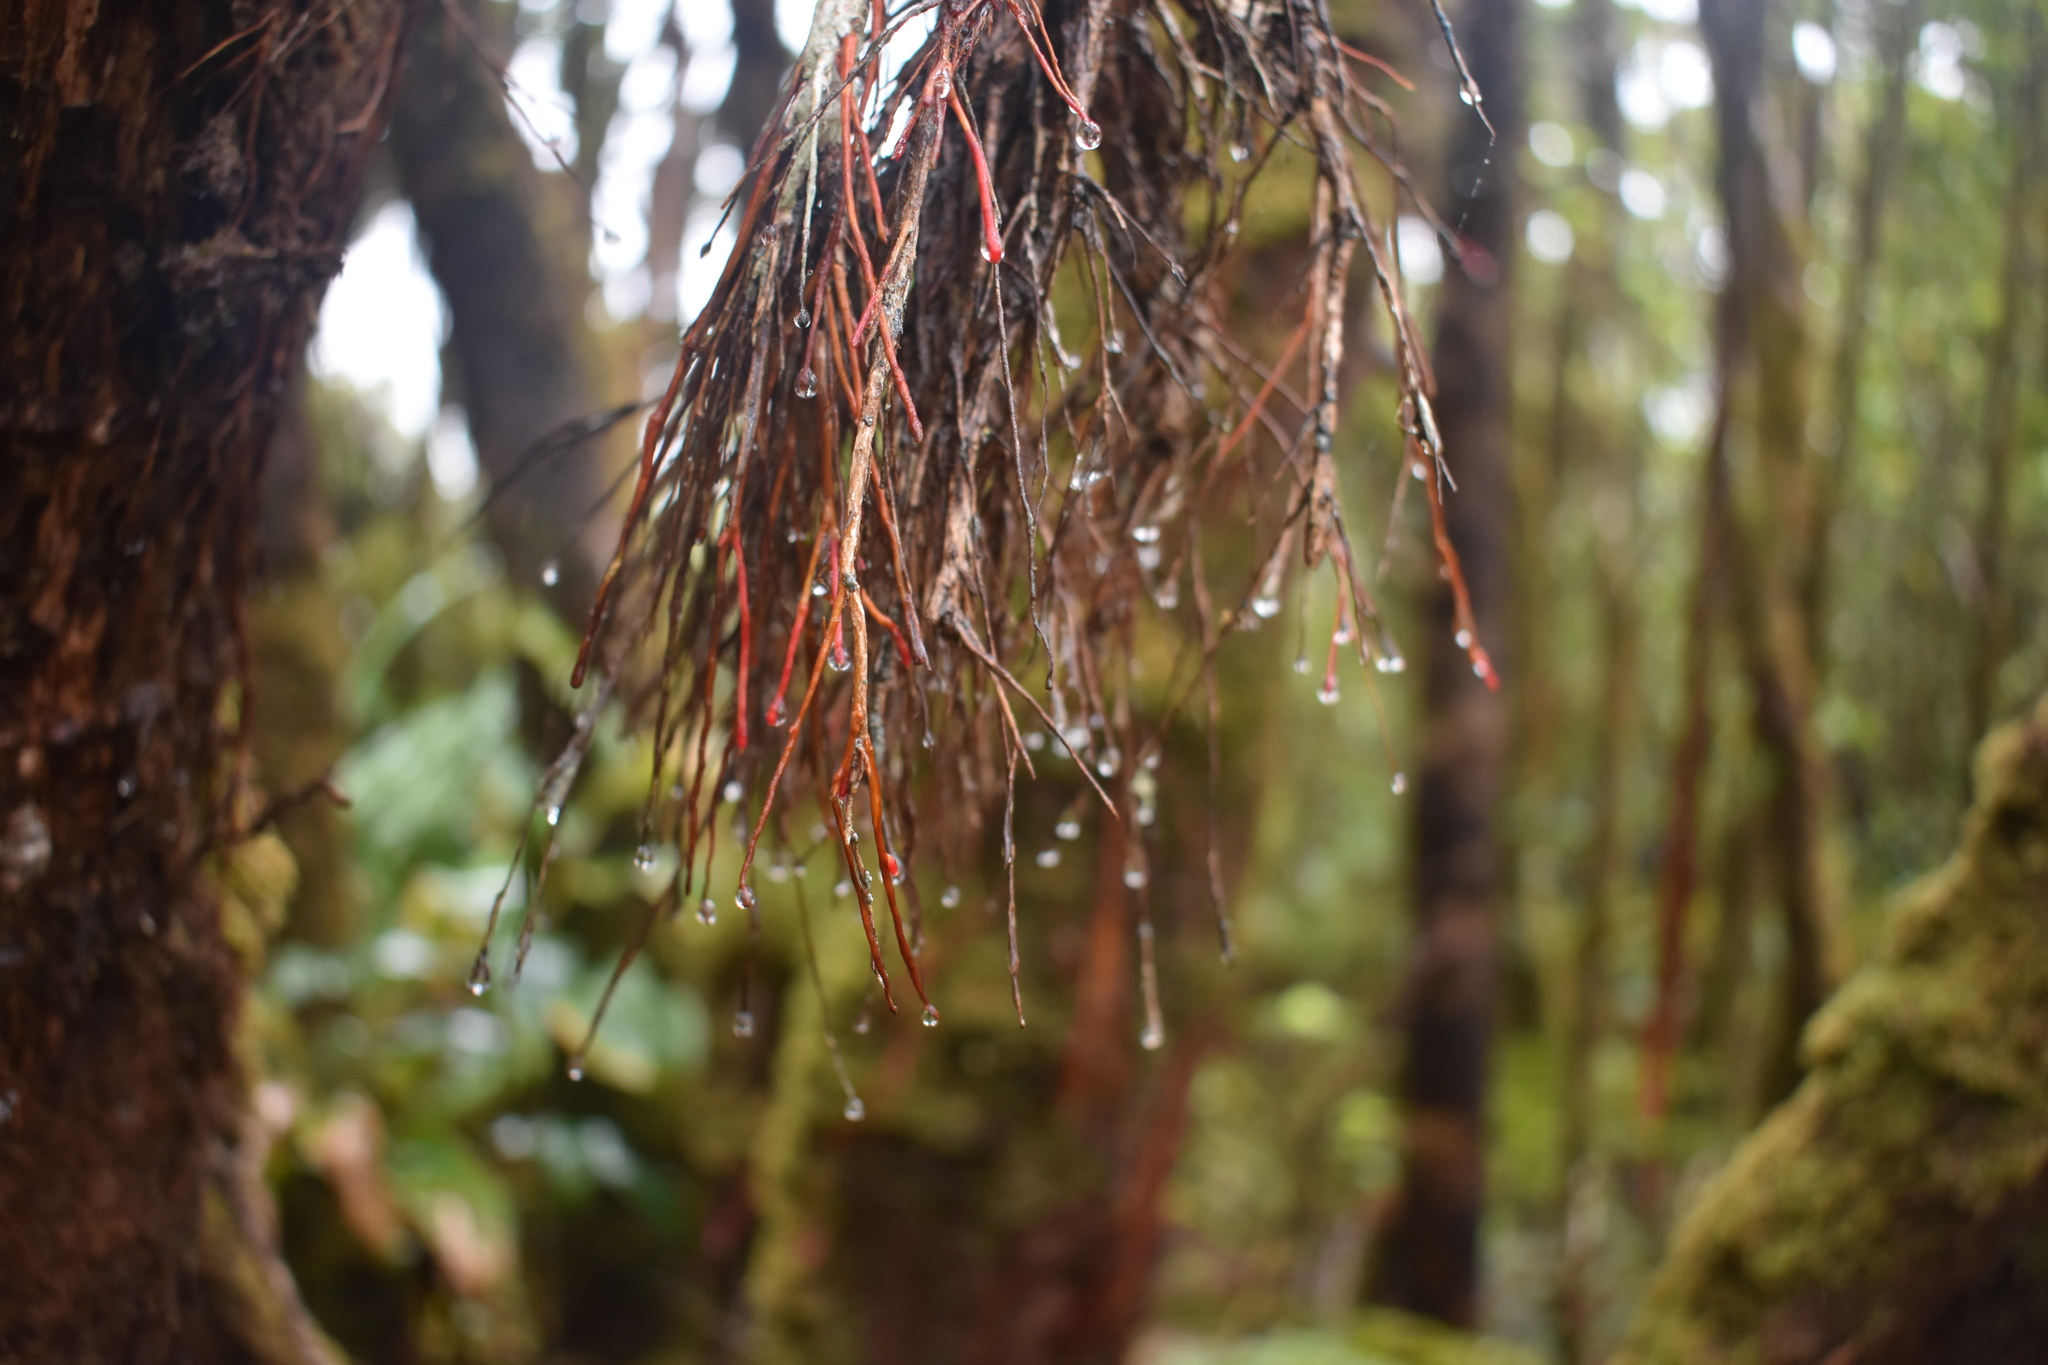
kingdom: Plantae
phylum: Tracheophyta
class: Magnoliopsida
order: Myrtales
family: Myrtaceae
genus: Metrosideros
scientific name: Metrosideros polymorpha
